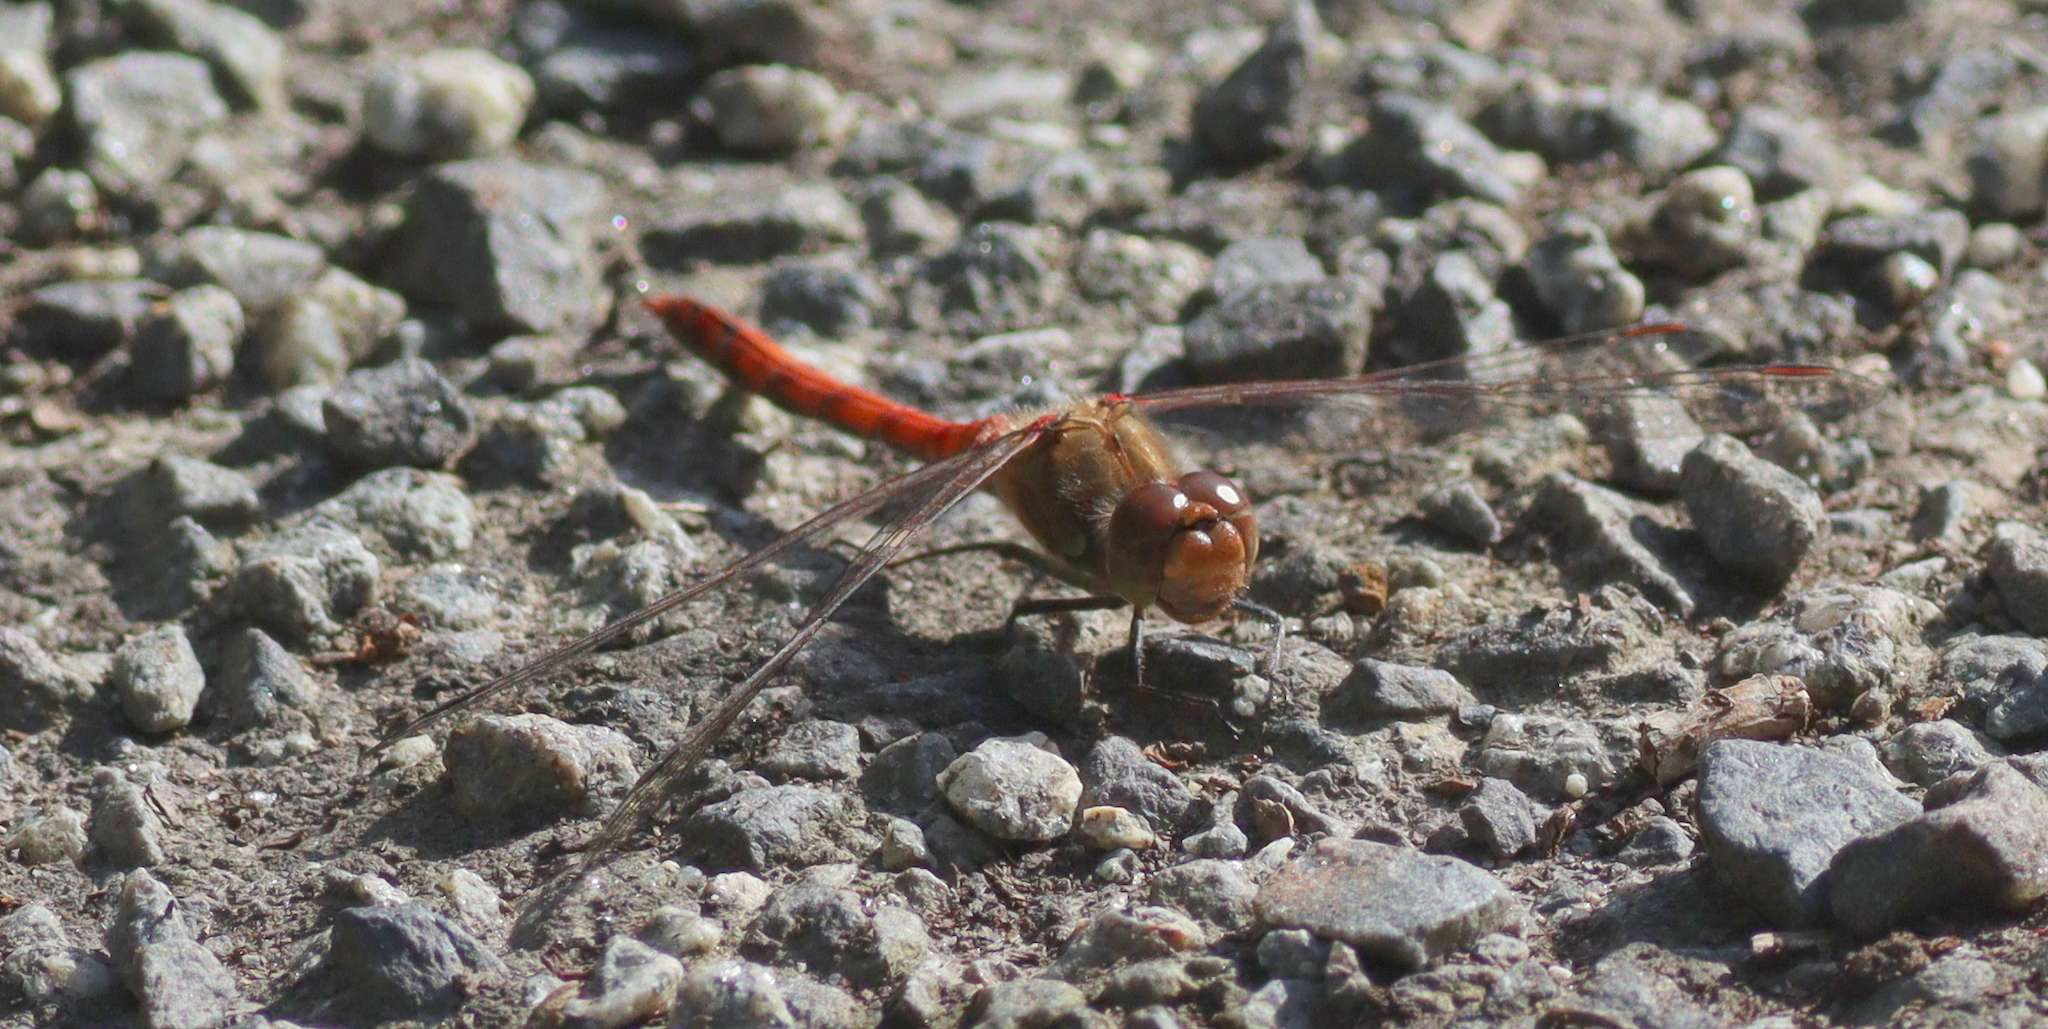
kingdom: Animalia
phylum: Arthropoda
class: Insecta
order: Odonata
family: Libellulidae
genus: Sympetrum
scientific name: Sympetrum striolatum
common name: Common darter
